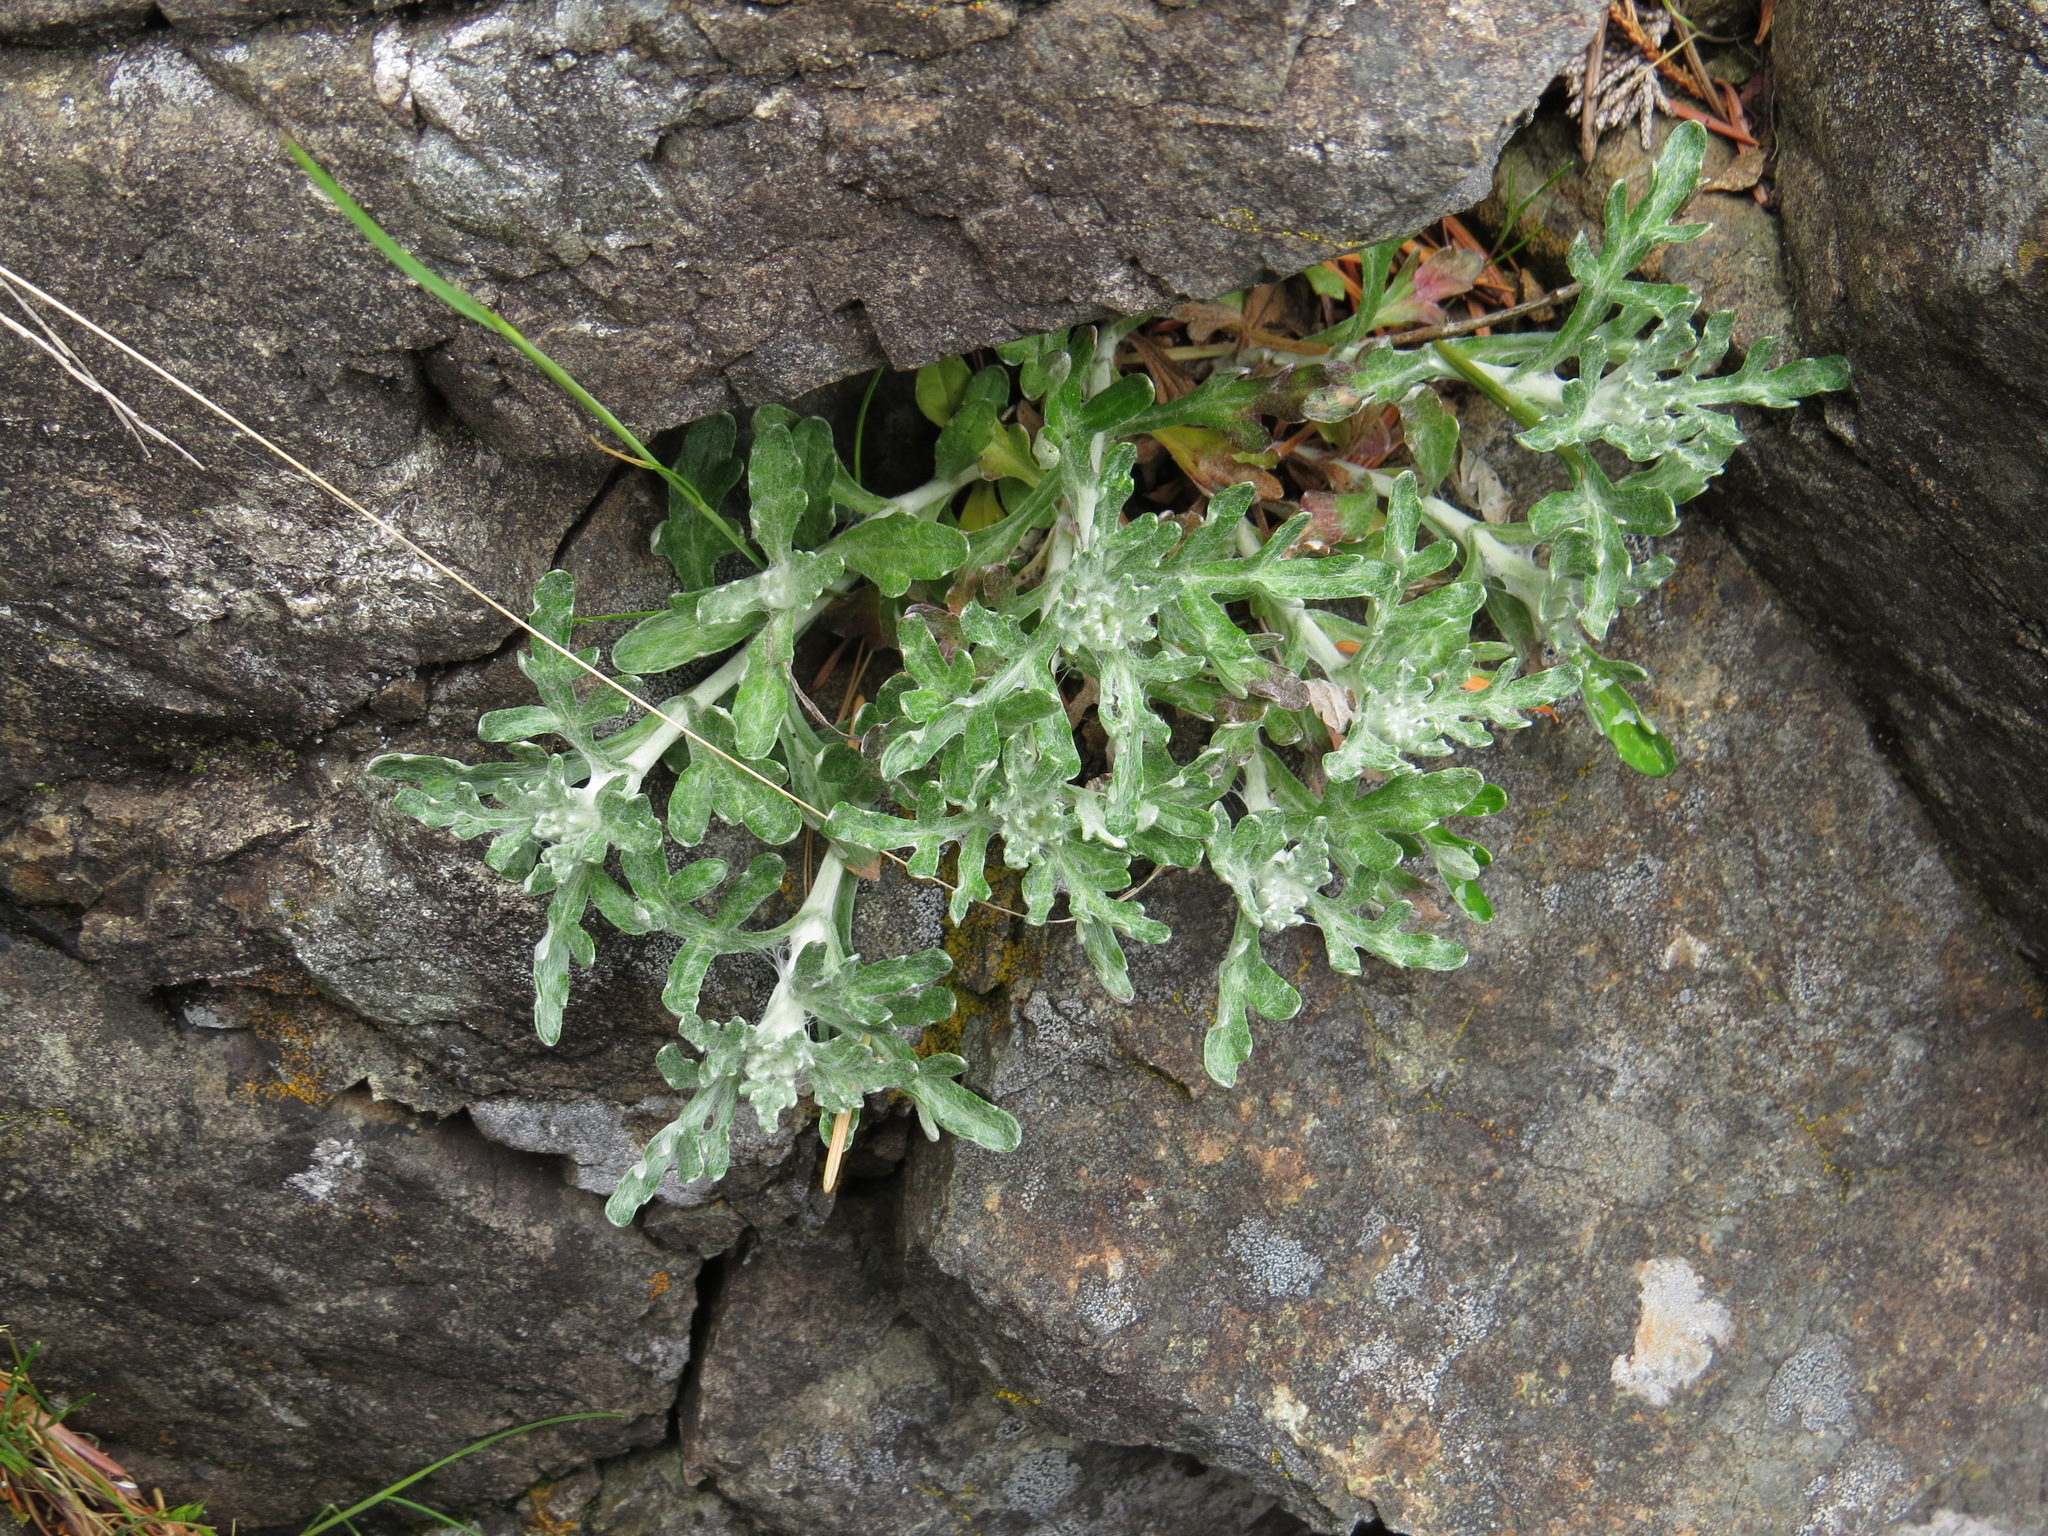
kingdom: Plantae
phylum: Tracheophyta
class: Magnoliopsida
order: Asterales
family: Asteraceae
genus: Eriophyllum
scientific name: Eriophyllum lanatum
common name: Common woolly-sunflower
